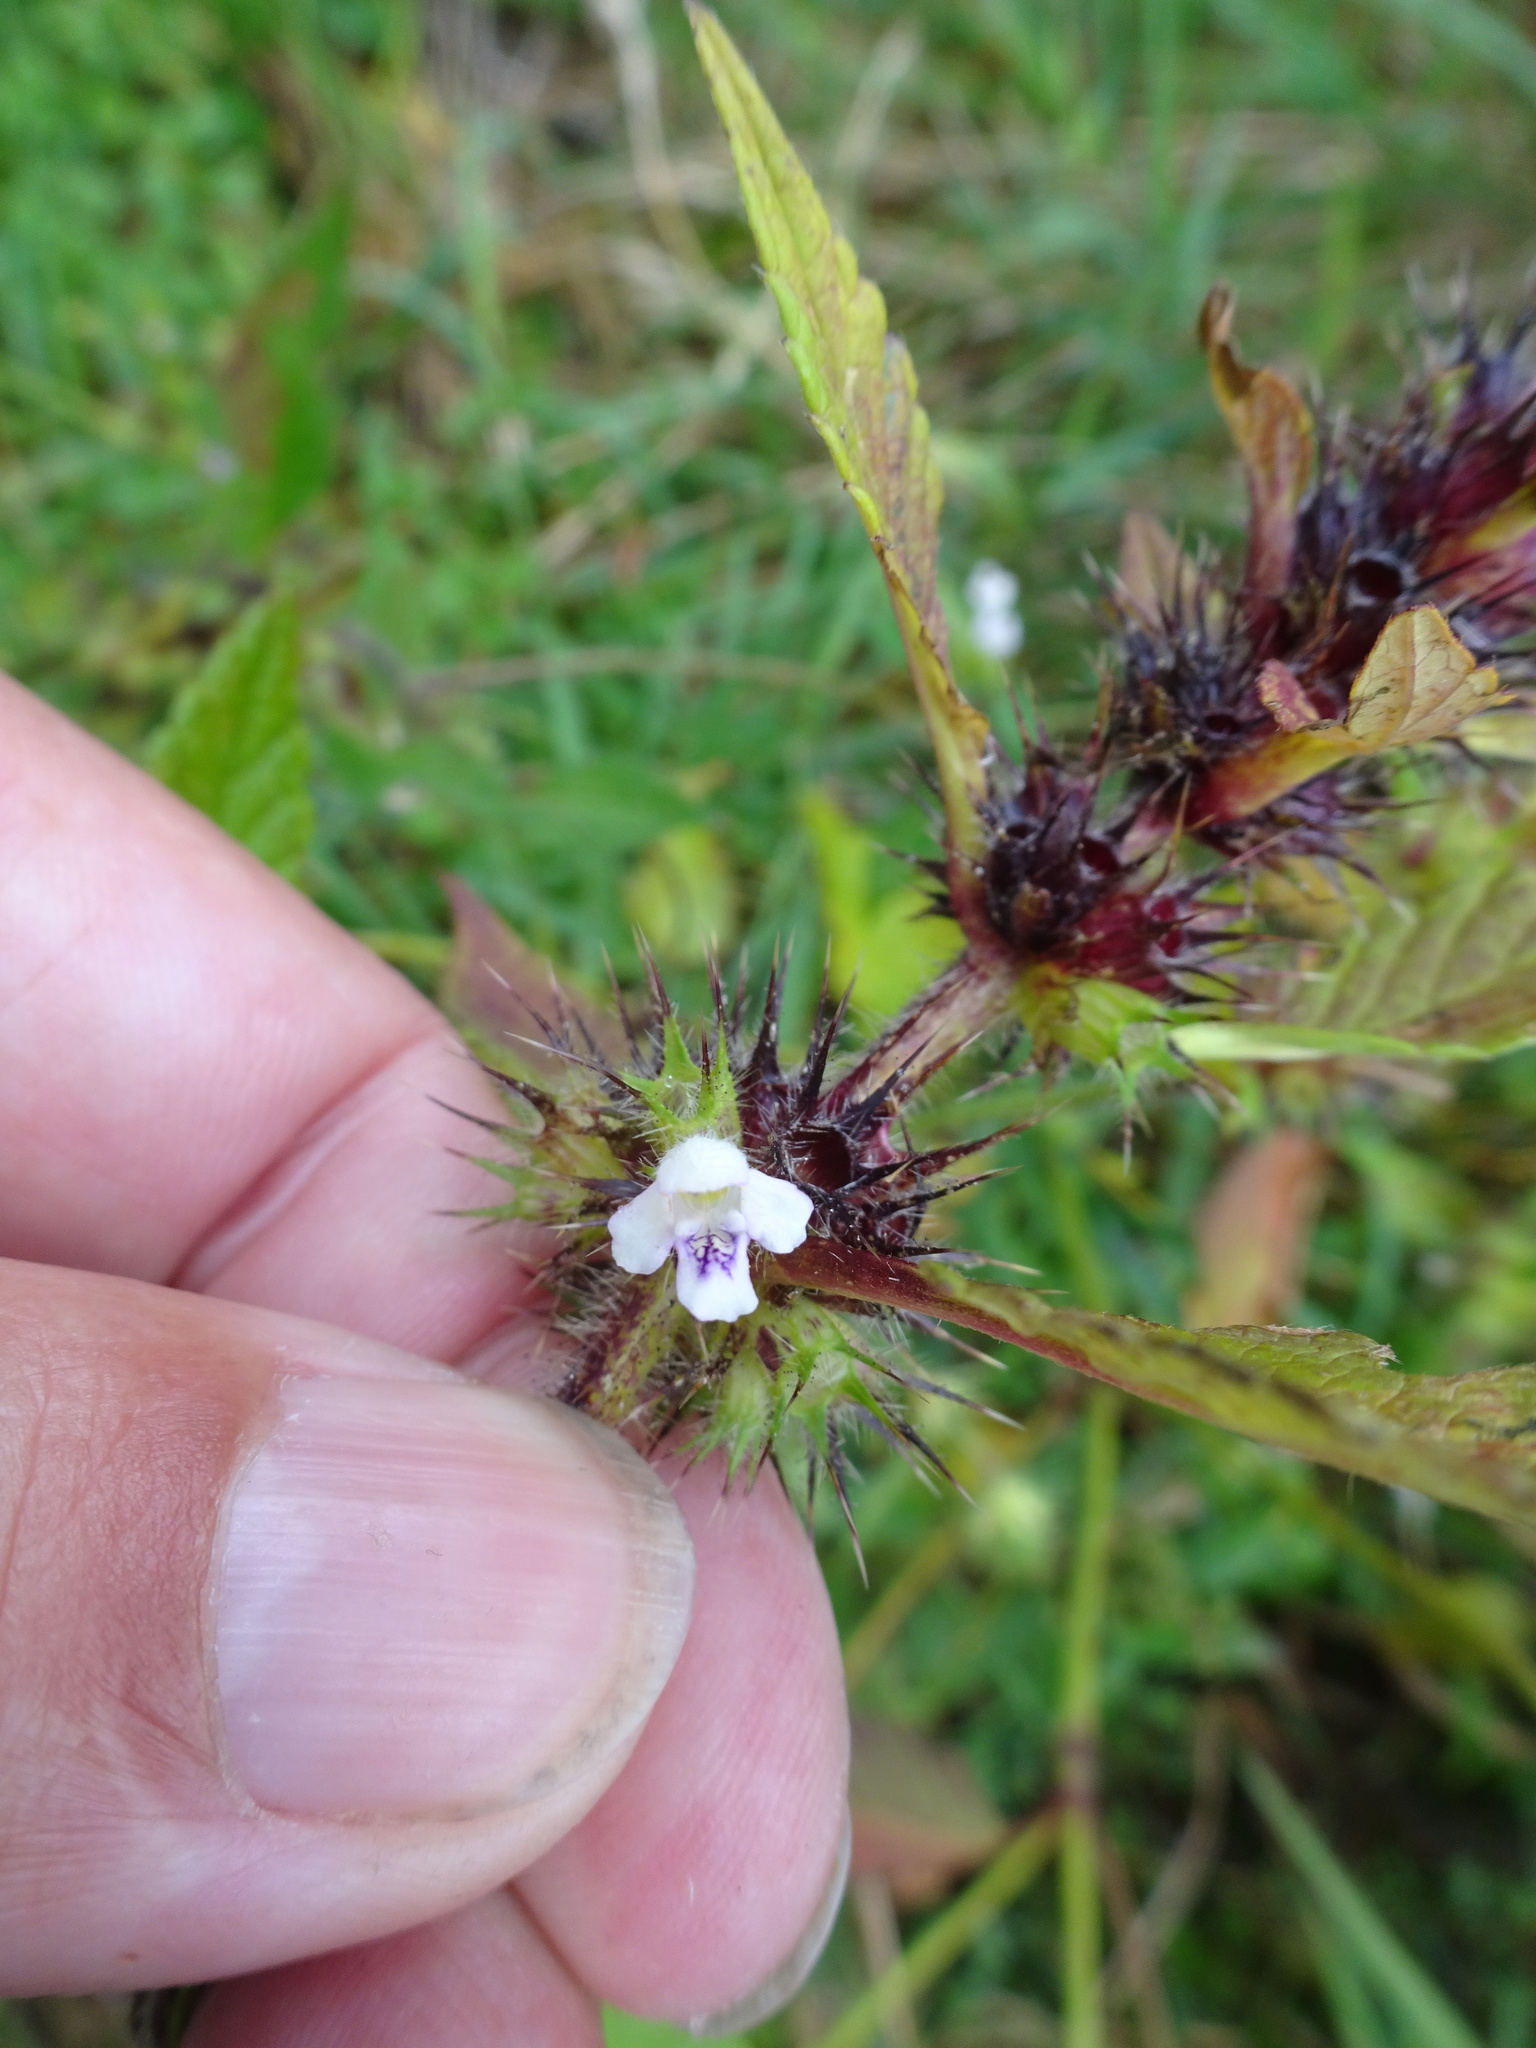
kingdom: Plantae
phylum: Tracheophyta
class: Magnoliopsida
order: Lamiales
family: Lamiaceae
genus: Galeopsis
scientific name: Galeopsis tetrahit
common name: Common hemp-nettle
